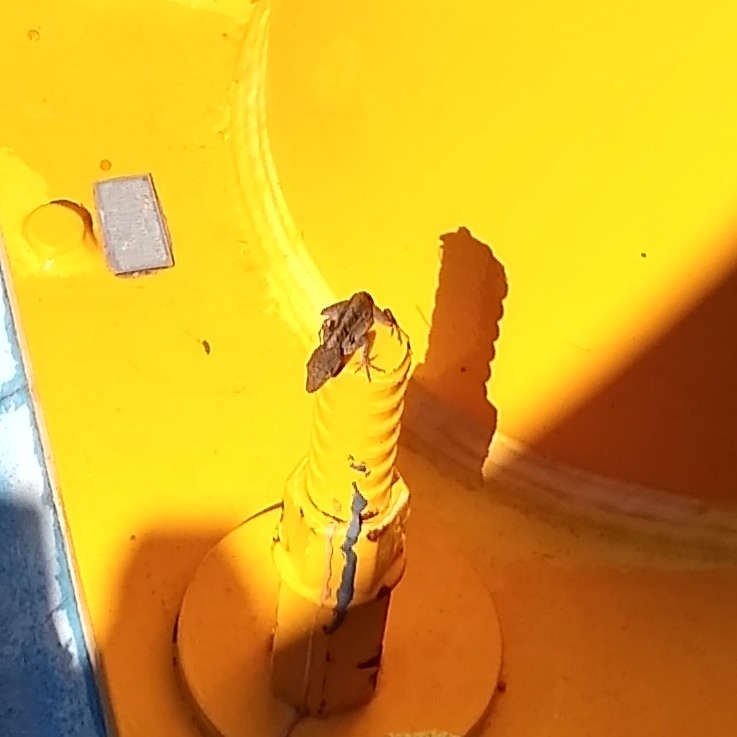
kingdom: Animalia
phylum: Chordata
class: Squamata
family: Dactyloidae
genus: Anolis
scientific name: Anolis sagrei
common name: Brown anole
